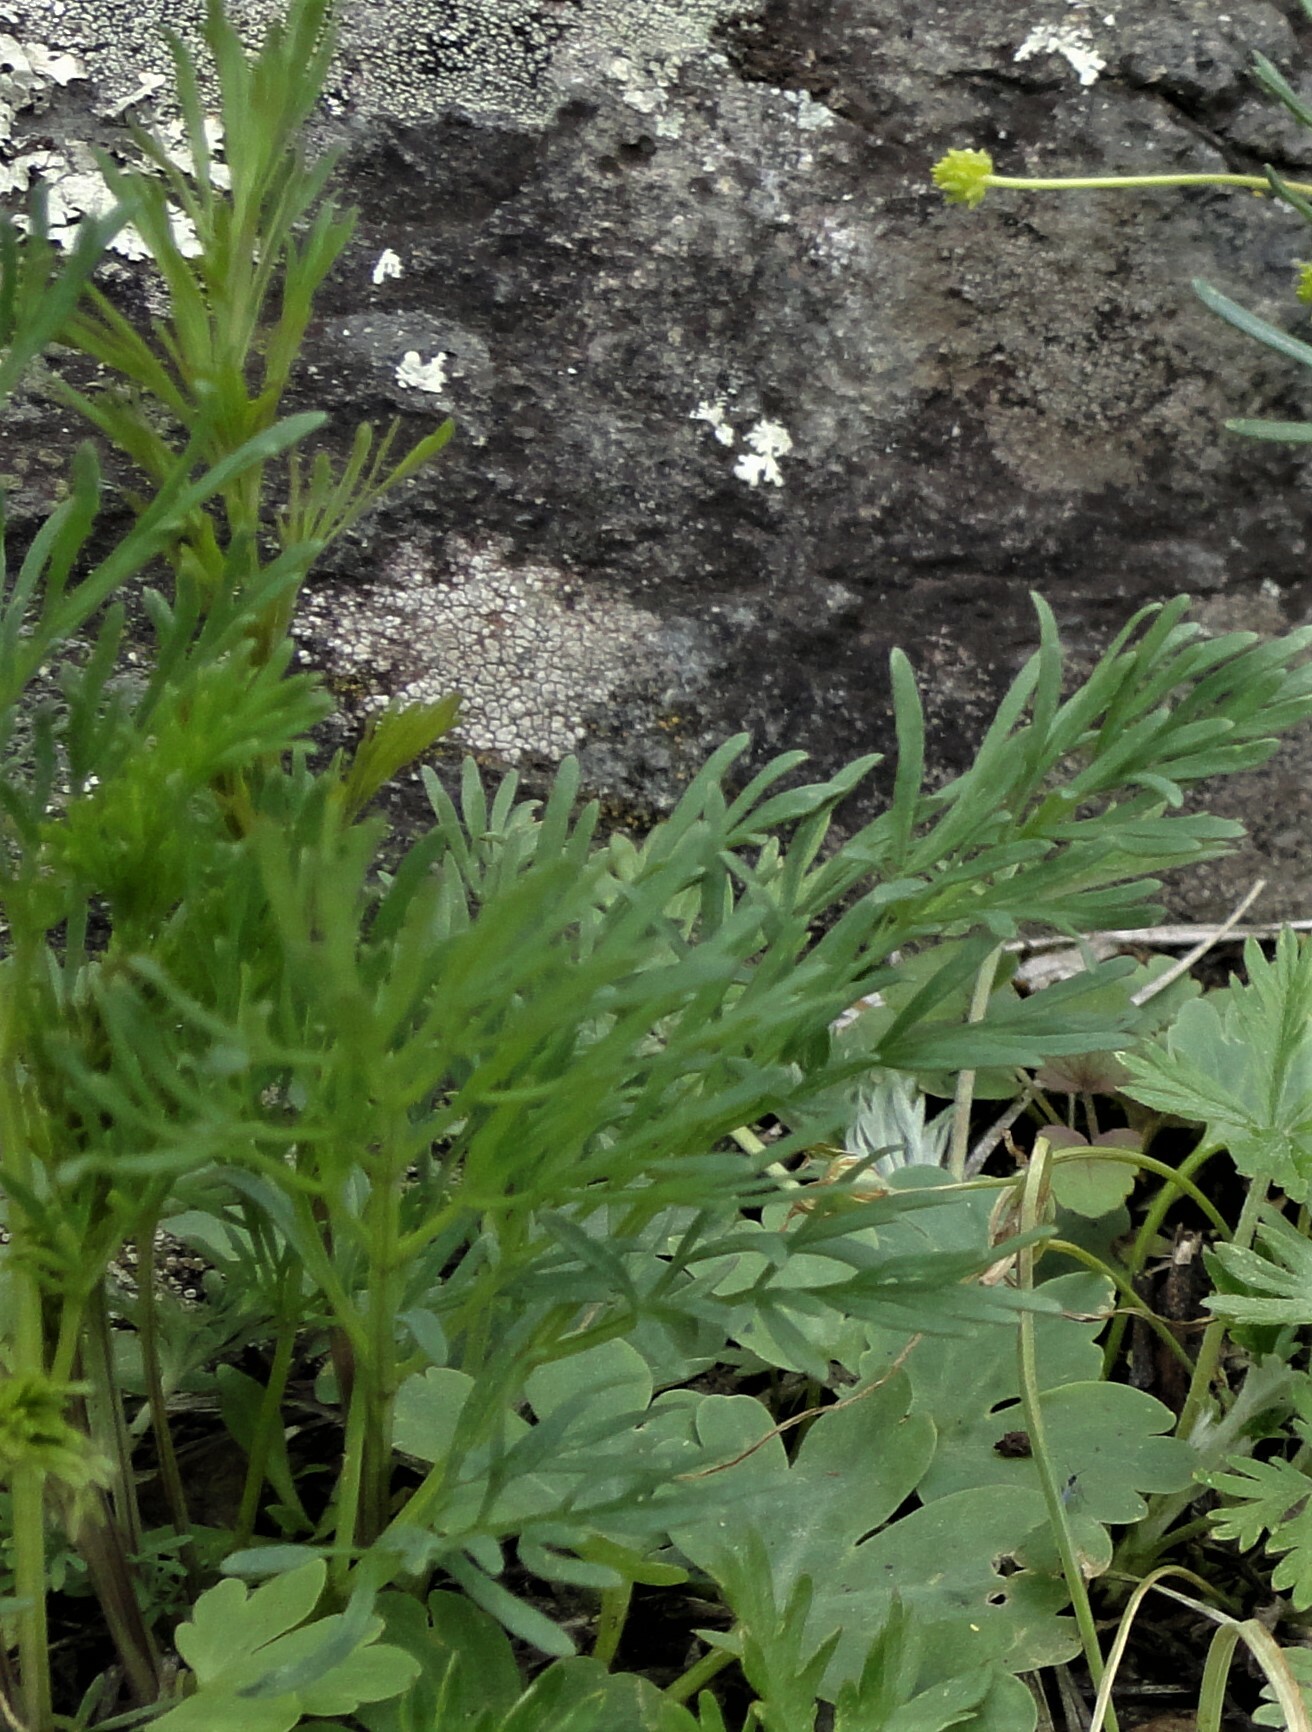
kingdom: Plantae
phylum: Tracheophyta
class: Magnoliopsida
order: Apiales
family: Apiaceae
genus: Kadenia
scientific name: Kadenia dubia
